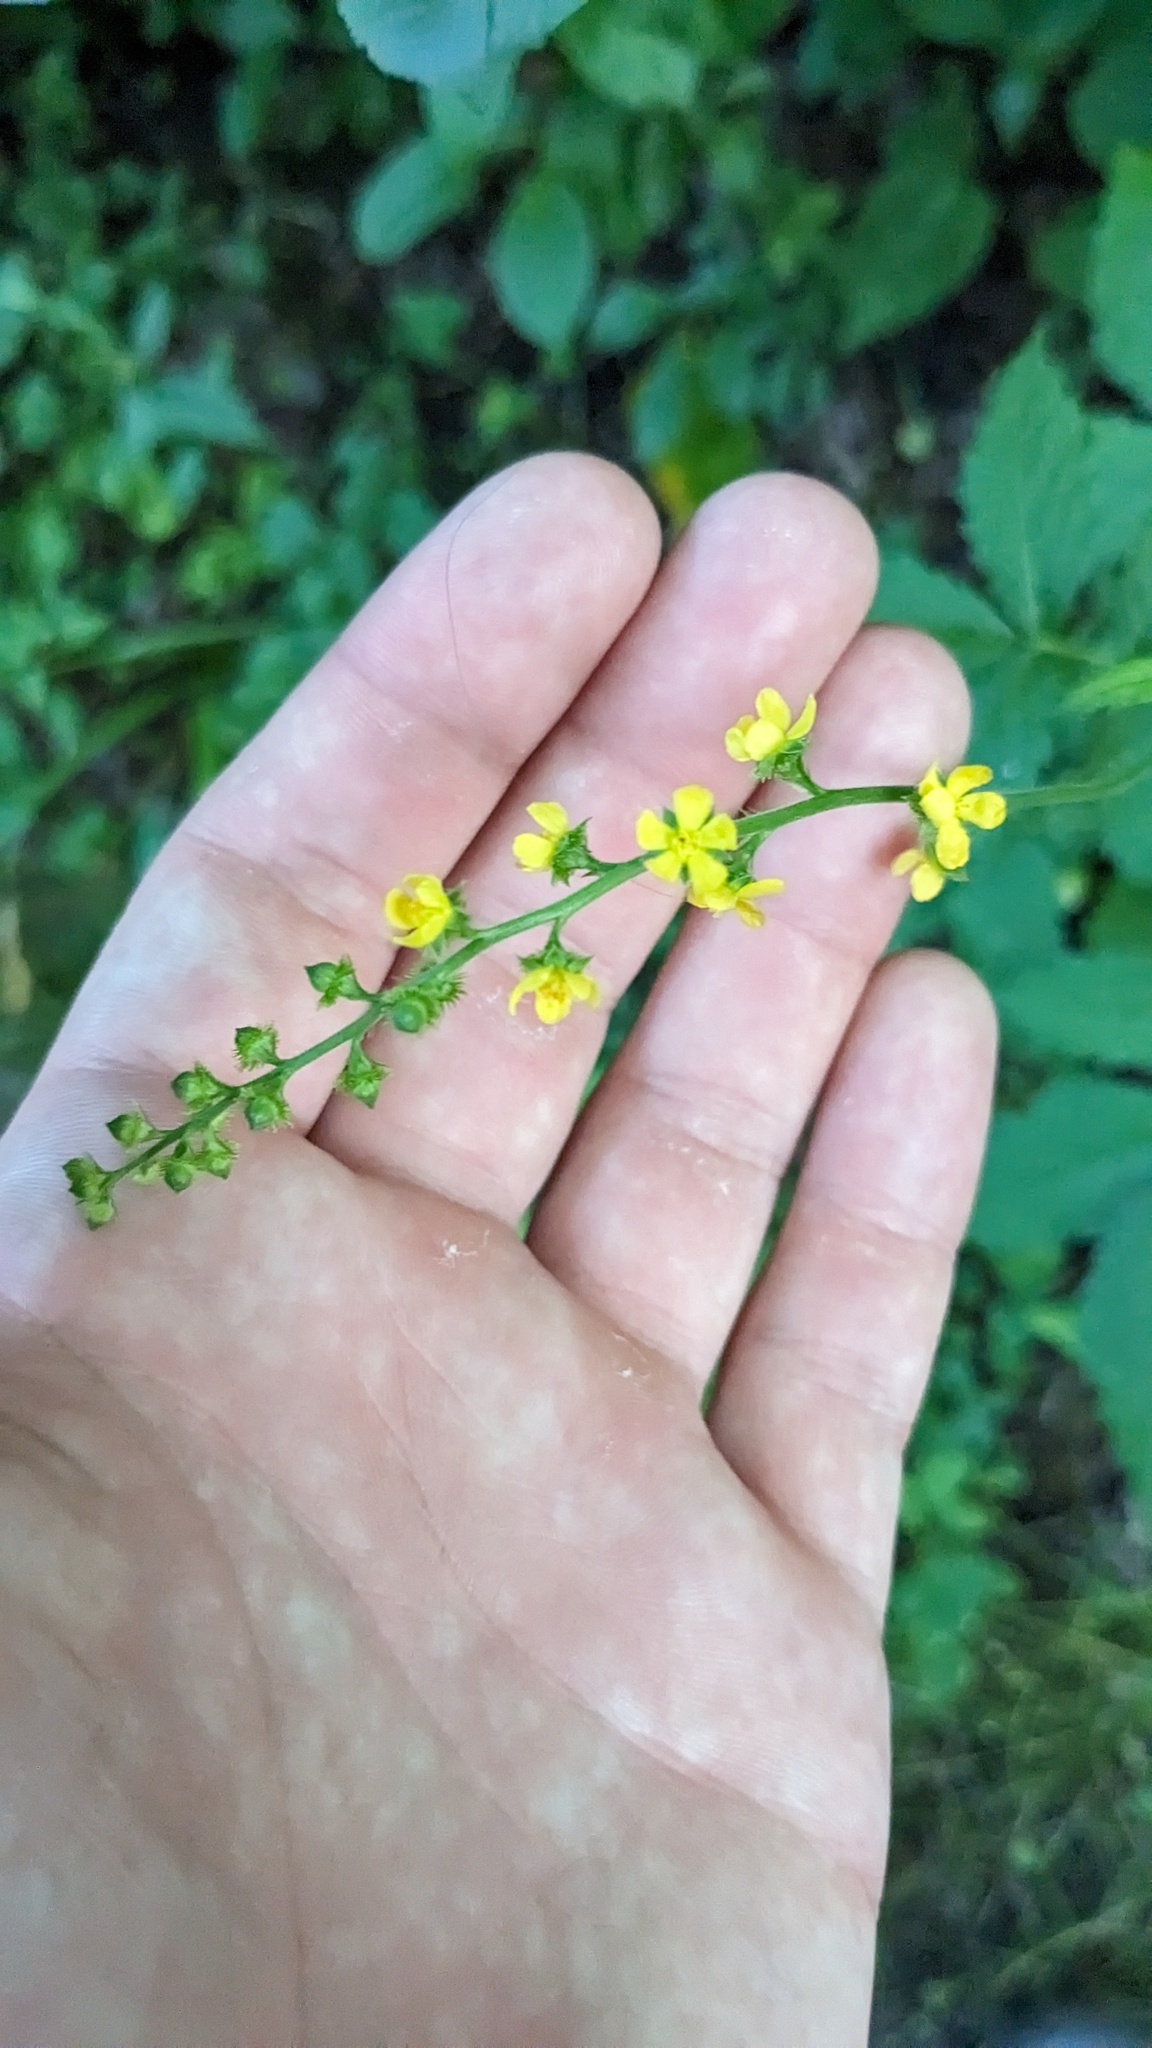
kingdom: Plantae
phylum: Tracheophyta
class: Magnoliopsida
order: Rosales
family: Rosaceae
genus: Agrimonia
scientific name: Agrimonia gryposepala
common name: Common agrimony
